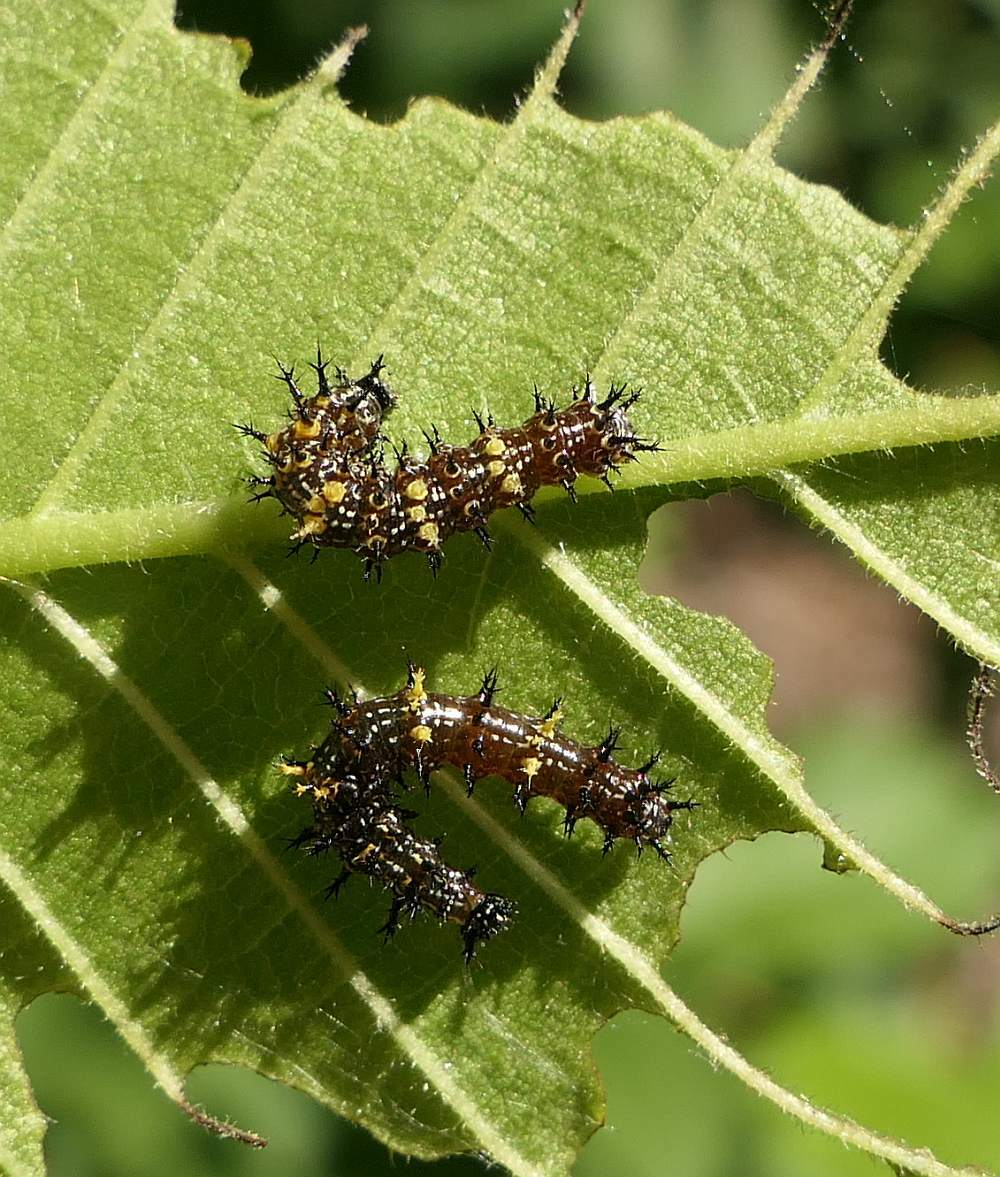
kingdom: Animalia
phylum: Arthropoda
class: Insecta
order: Lepidoptera
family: Nymphalidae
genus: Polygonia
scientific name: Polygonia interrogationis
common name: Question mark
